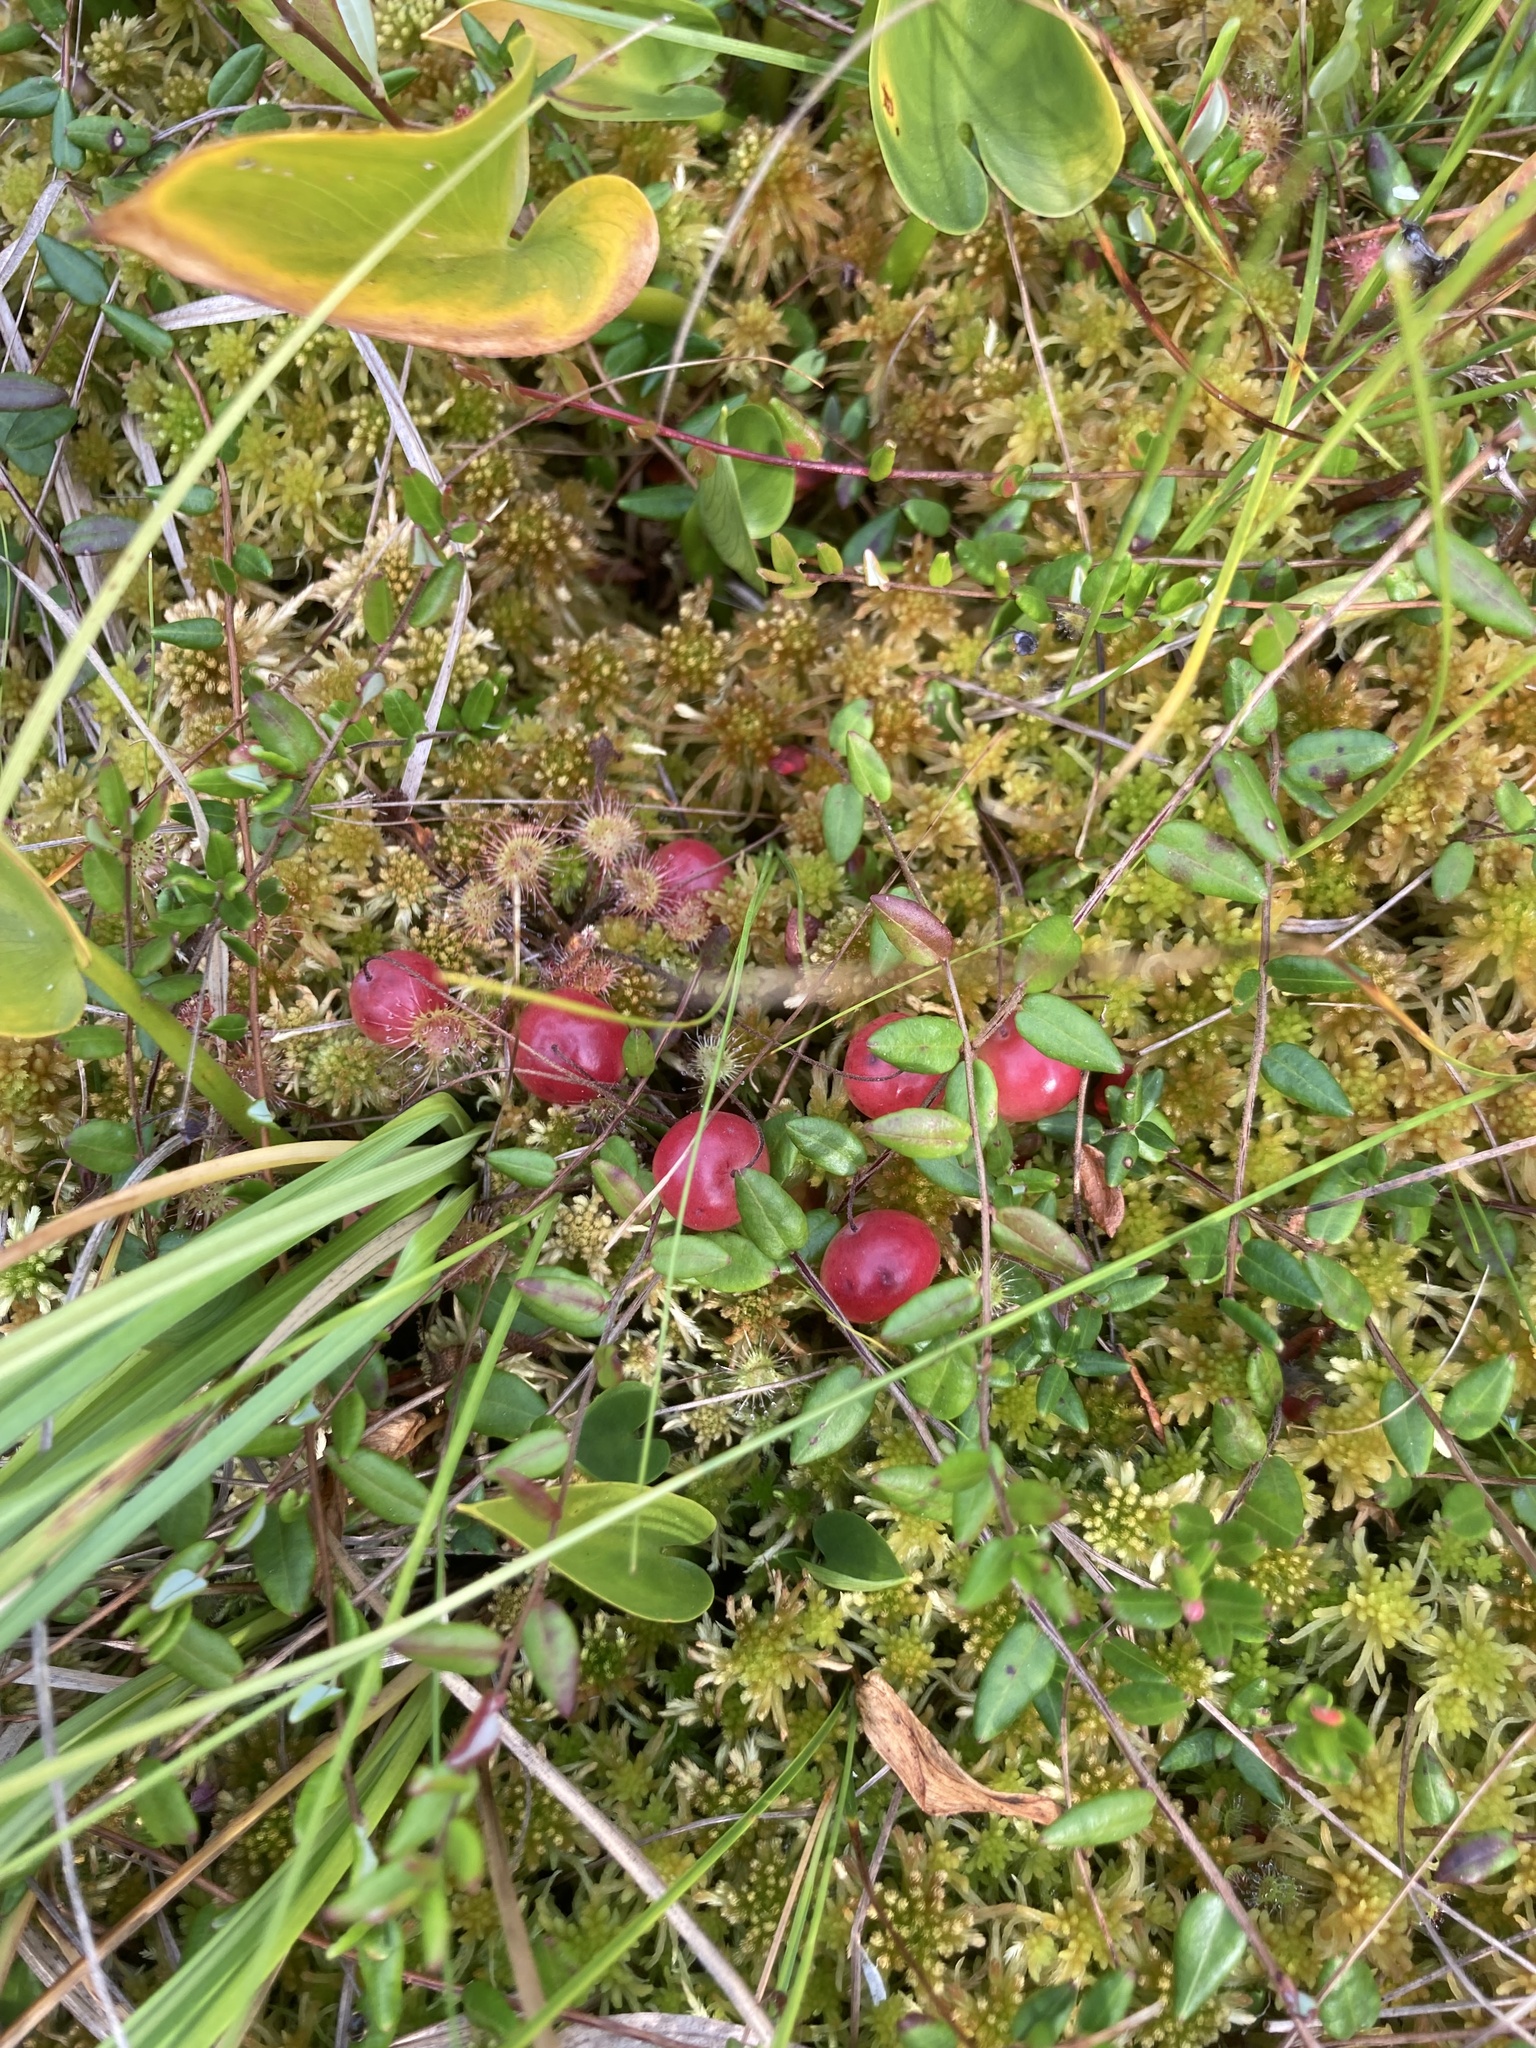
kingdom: Plantae
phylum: Tracheophyta
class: Magnoliopsida
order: Ericales
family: Ericaceae
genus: Vaccinium
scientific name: Vaccinium oxycoccos
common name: Cranberry
